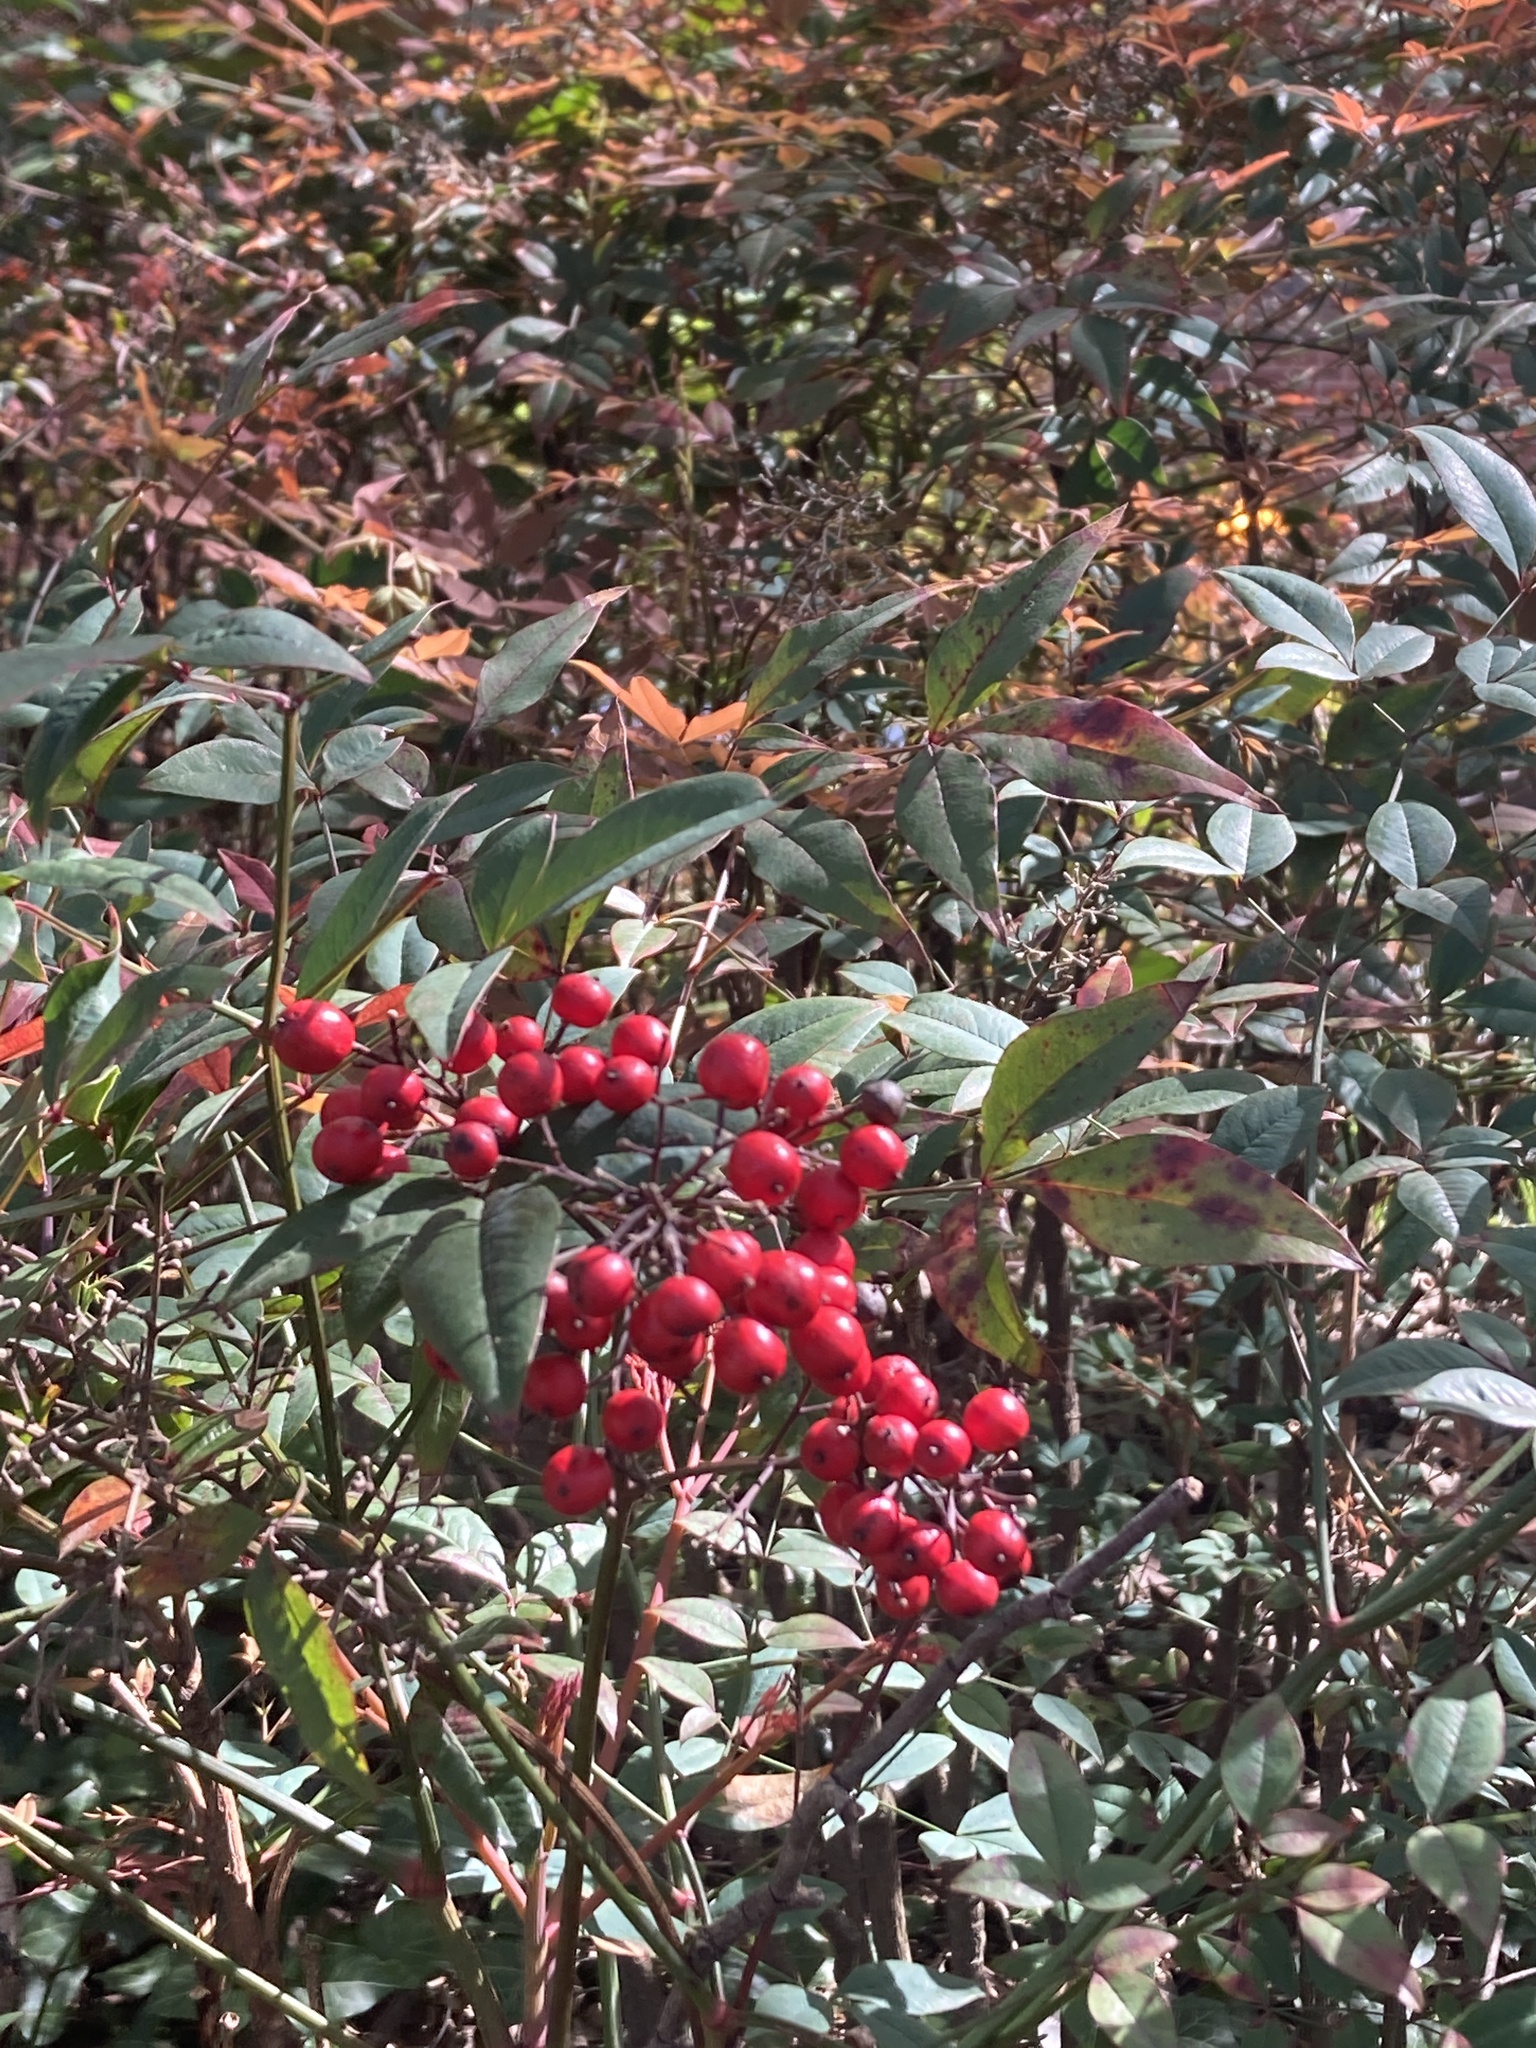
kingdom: Plantae
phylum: Tracheophyta
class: Magnoliopsida
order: Ranunculales
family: Berberidaceae
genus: Nandina
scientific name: Nandina domestica
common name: Sacred bamboo
